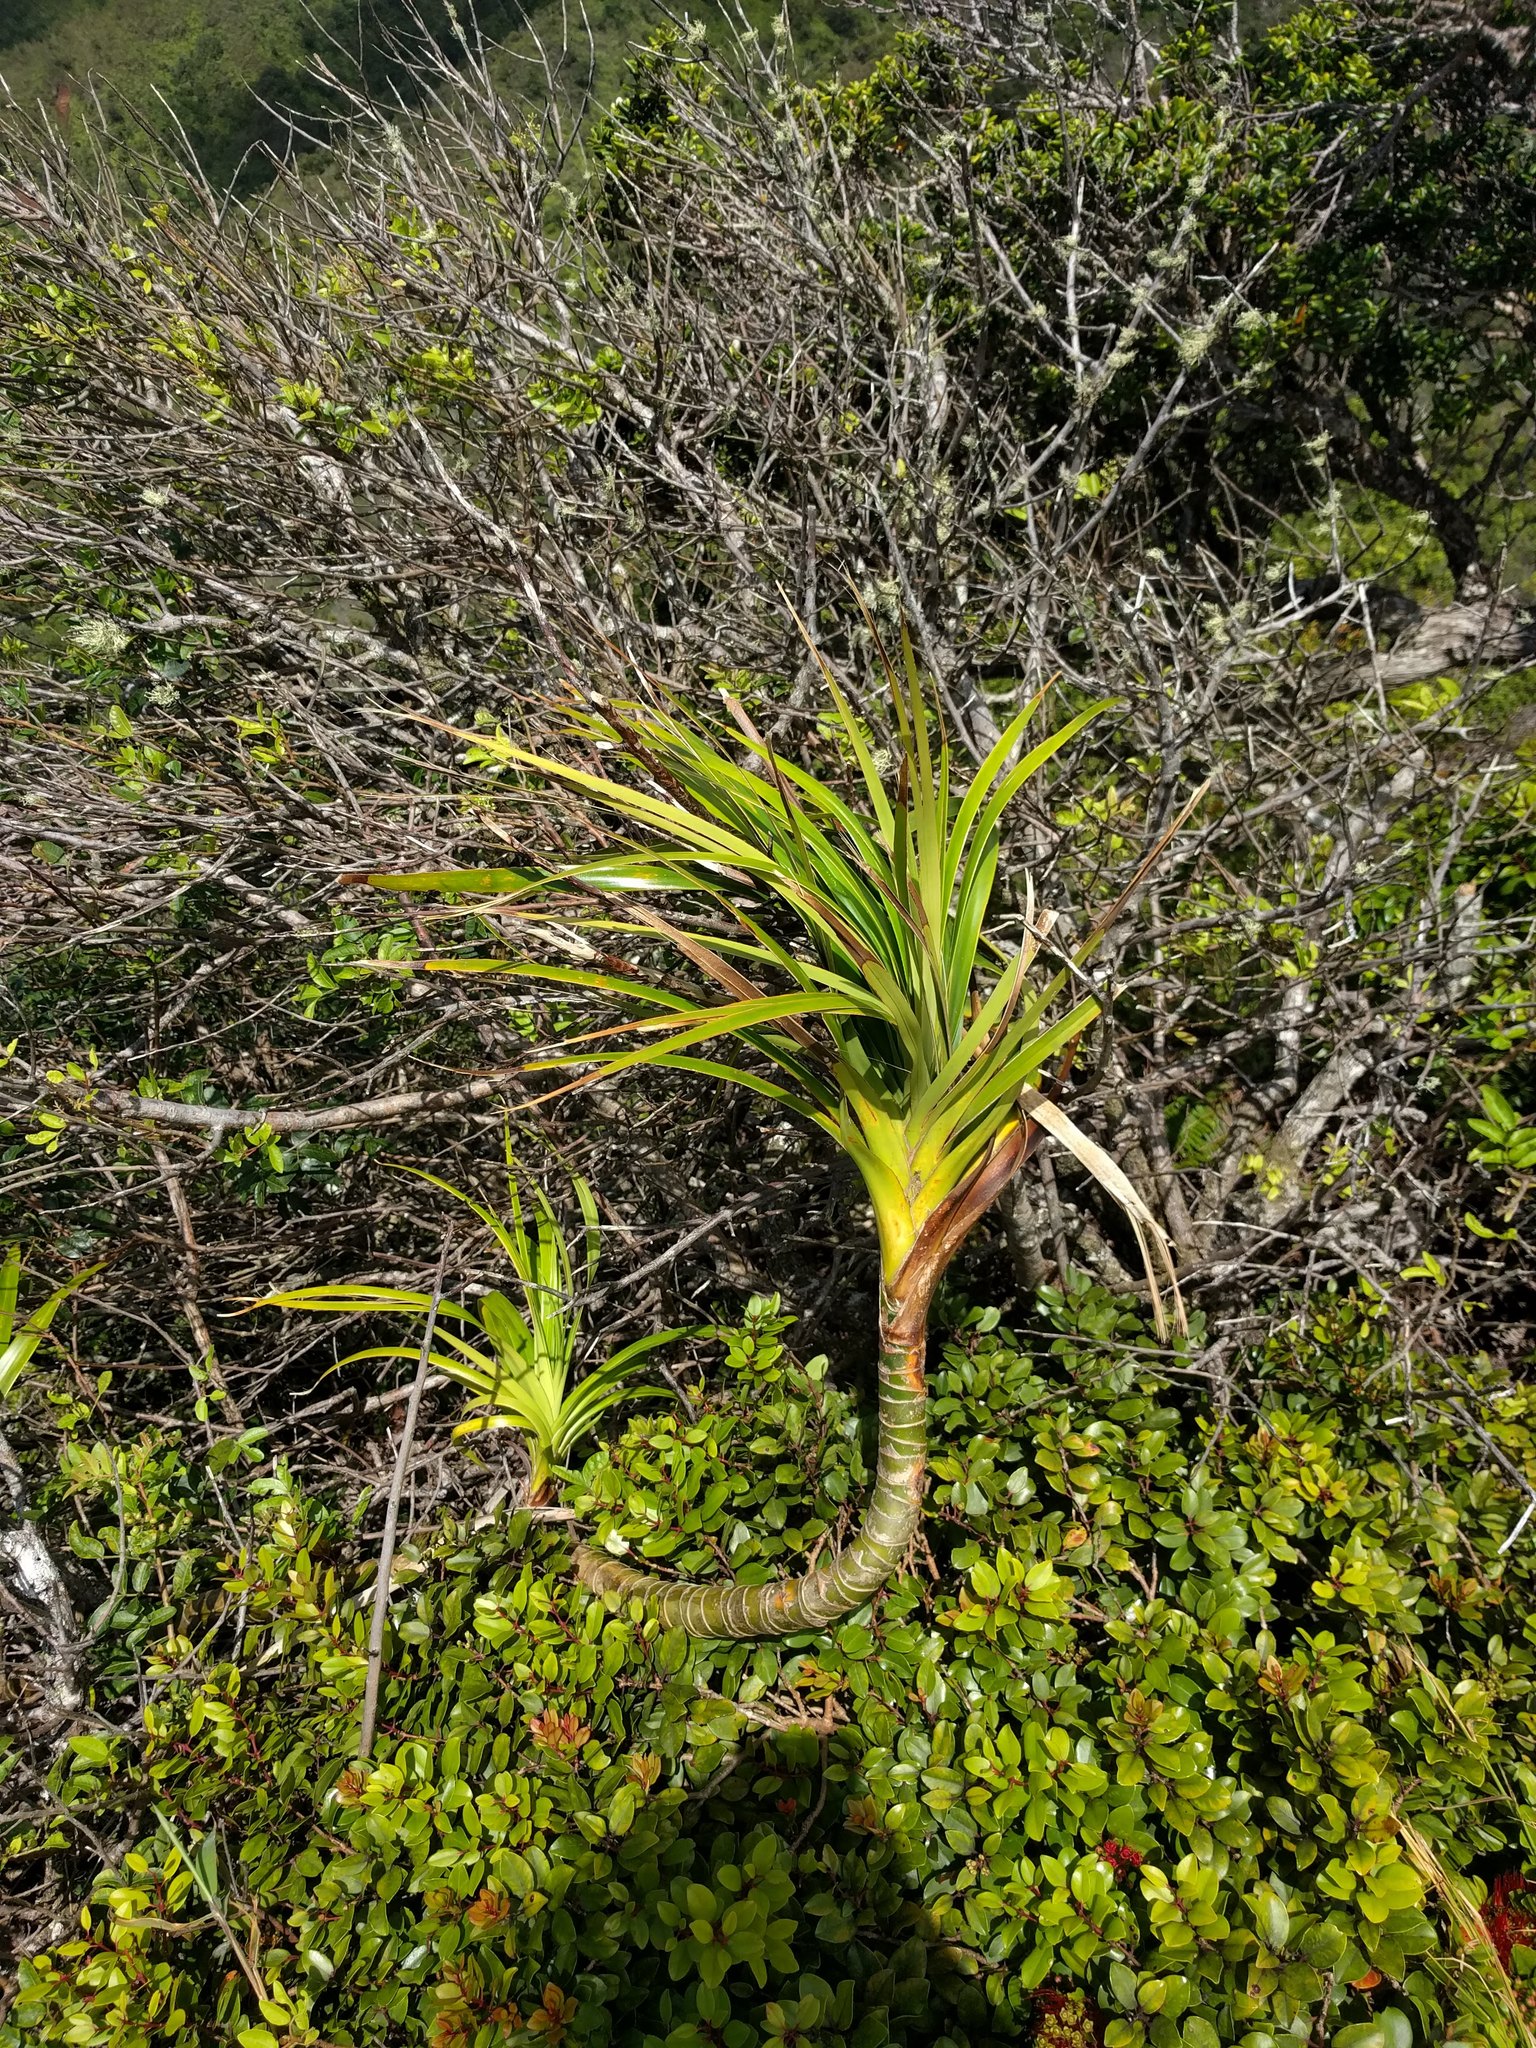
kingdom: Plantae
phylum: Tracheophyta
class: Liliopsida
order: Pandanales
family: Pandanaceae
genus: Freycinetia
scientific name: Freycinetia arborea
